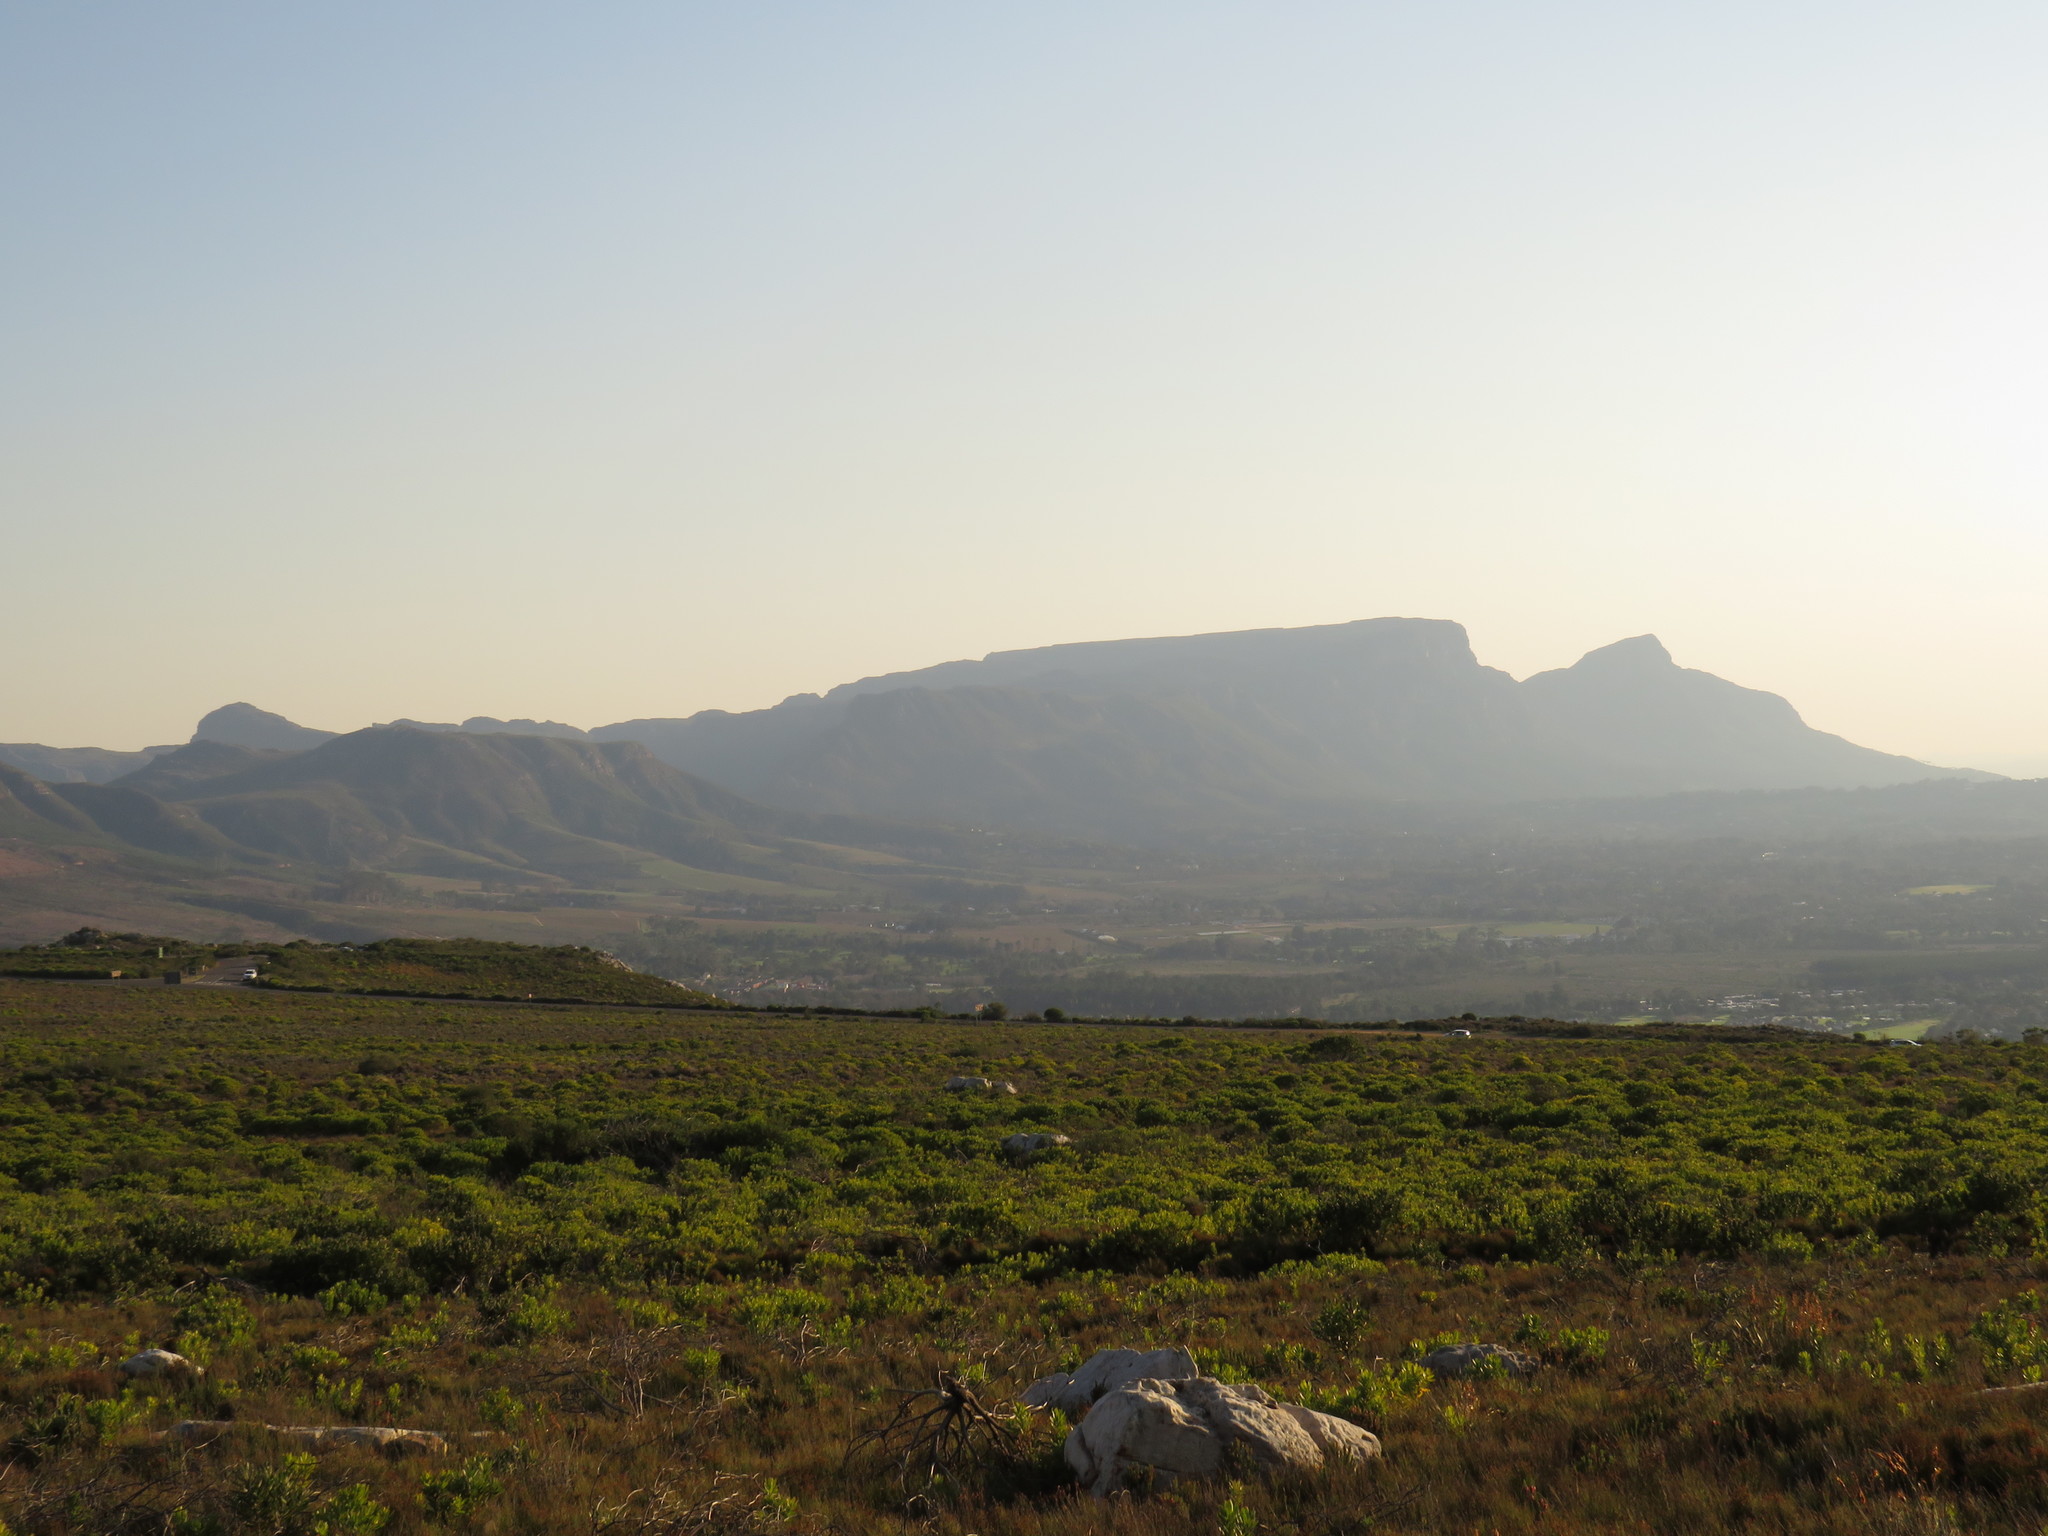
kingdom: Plantae
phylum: Tracheophyta
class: Magnoliopsida
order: Proteales
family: Proteaceae
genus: Protea
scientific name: Protea lepidocarpodendron
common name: Black-bearded protea
